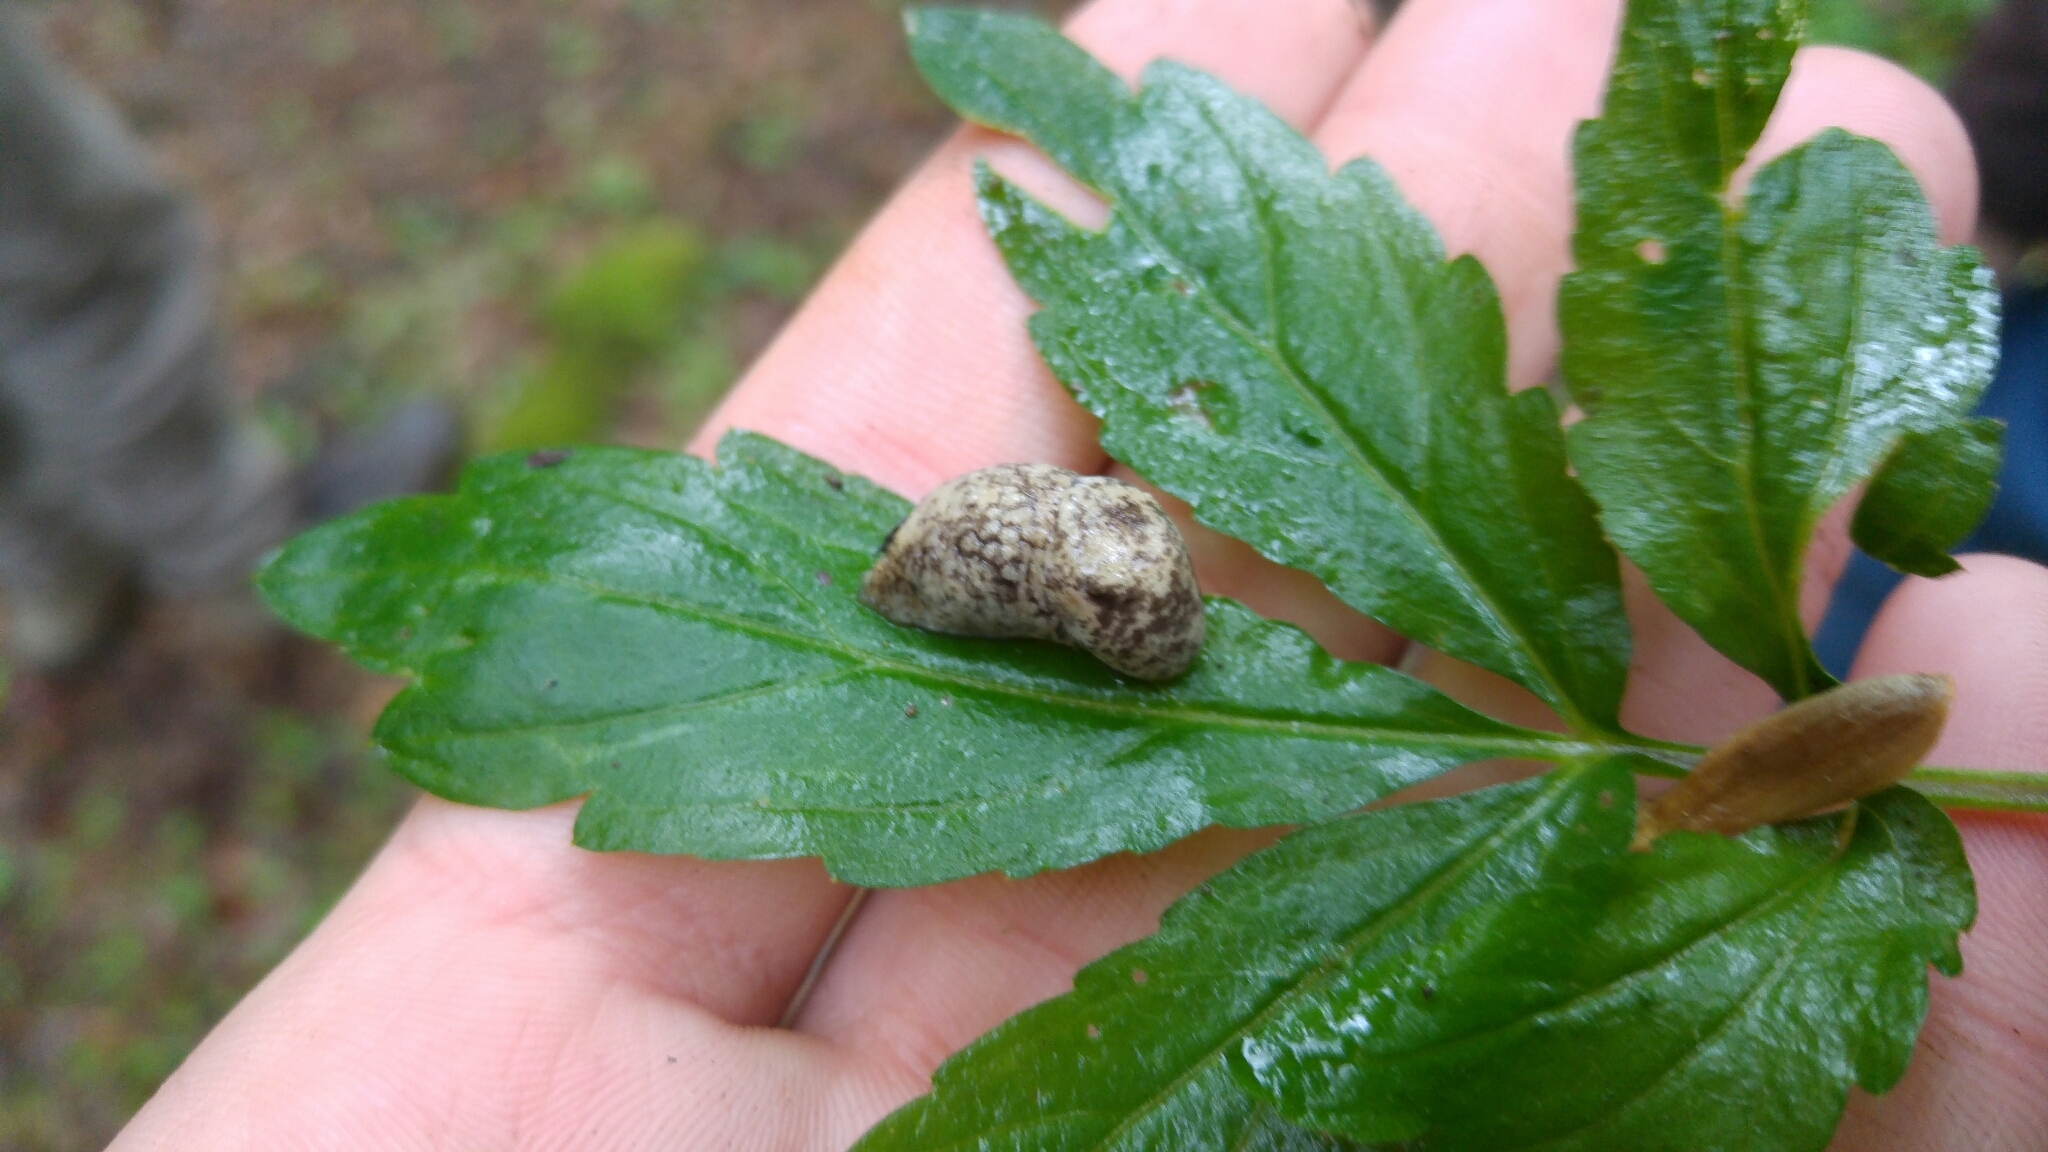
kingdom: Animalia
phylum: Mollusca
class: Gastropoda
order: Stylommatophora
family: Agriolimacidae
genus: Deroceras
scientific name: Deroceras reticulatum
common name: Gray field slug
